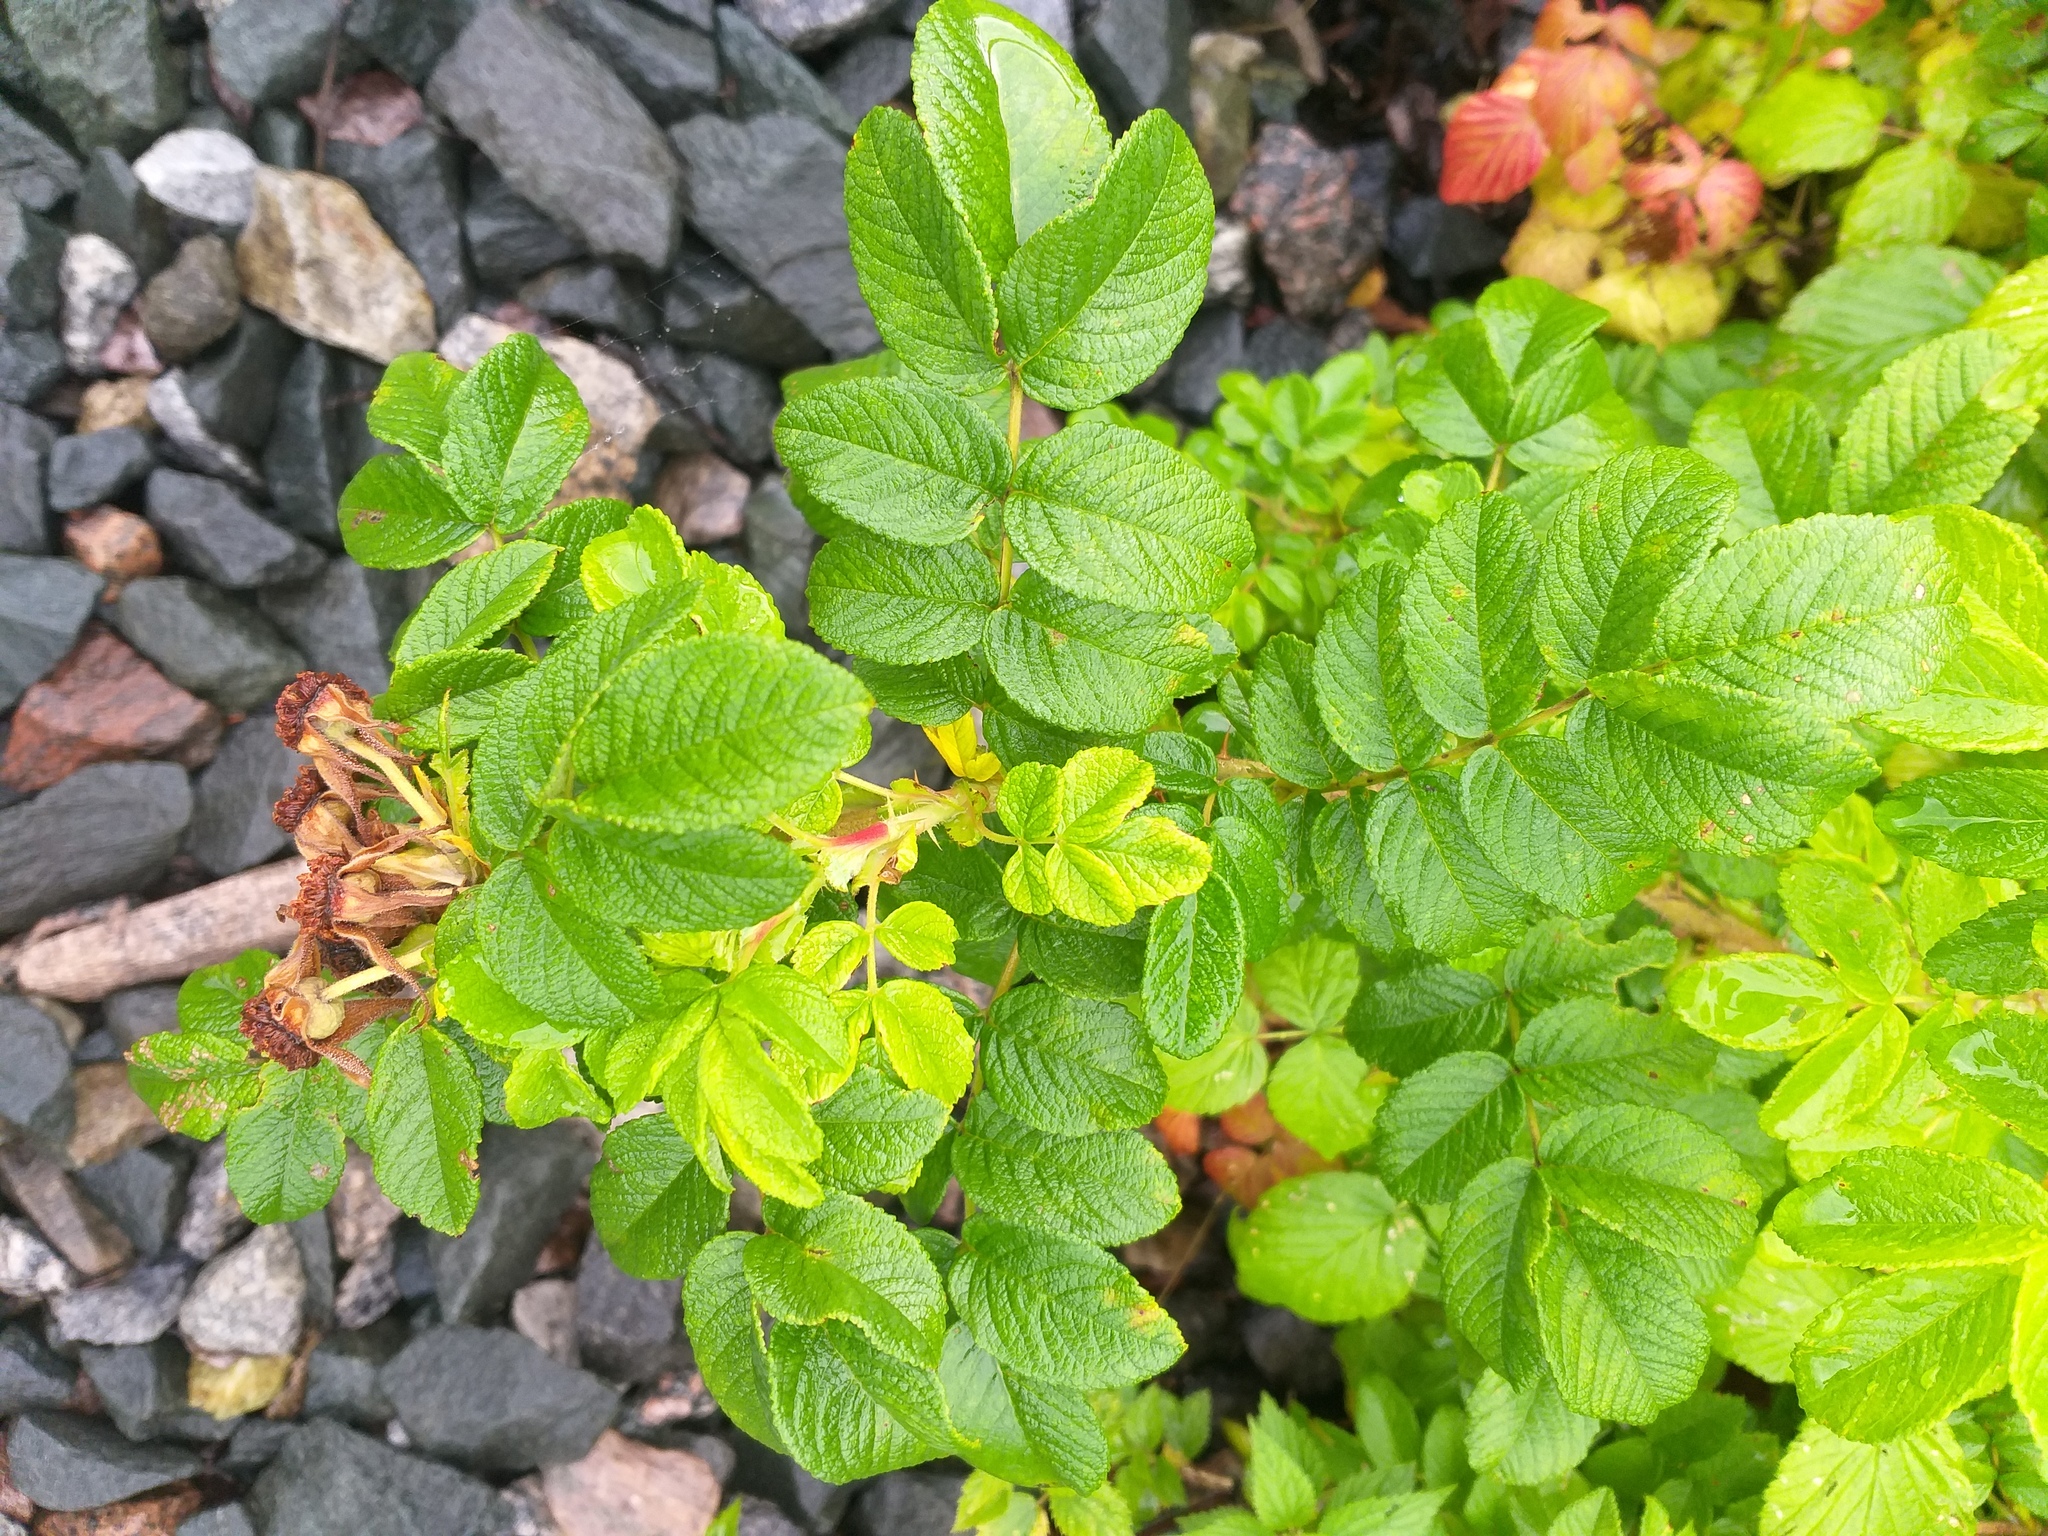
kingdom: Plantae
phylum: Tracheophyta
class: Magnoliopsida
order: Rosales
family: Rosaceae
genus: Rosa
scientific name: Rosa rugosa
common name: Japanese rose
